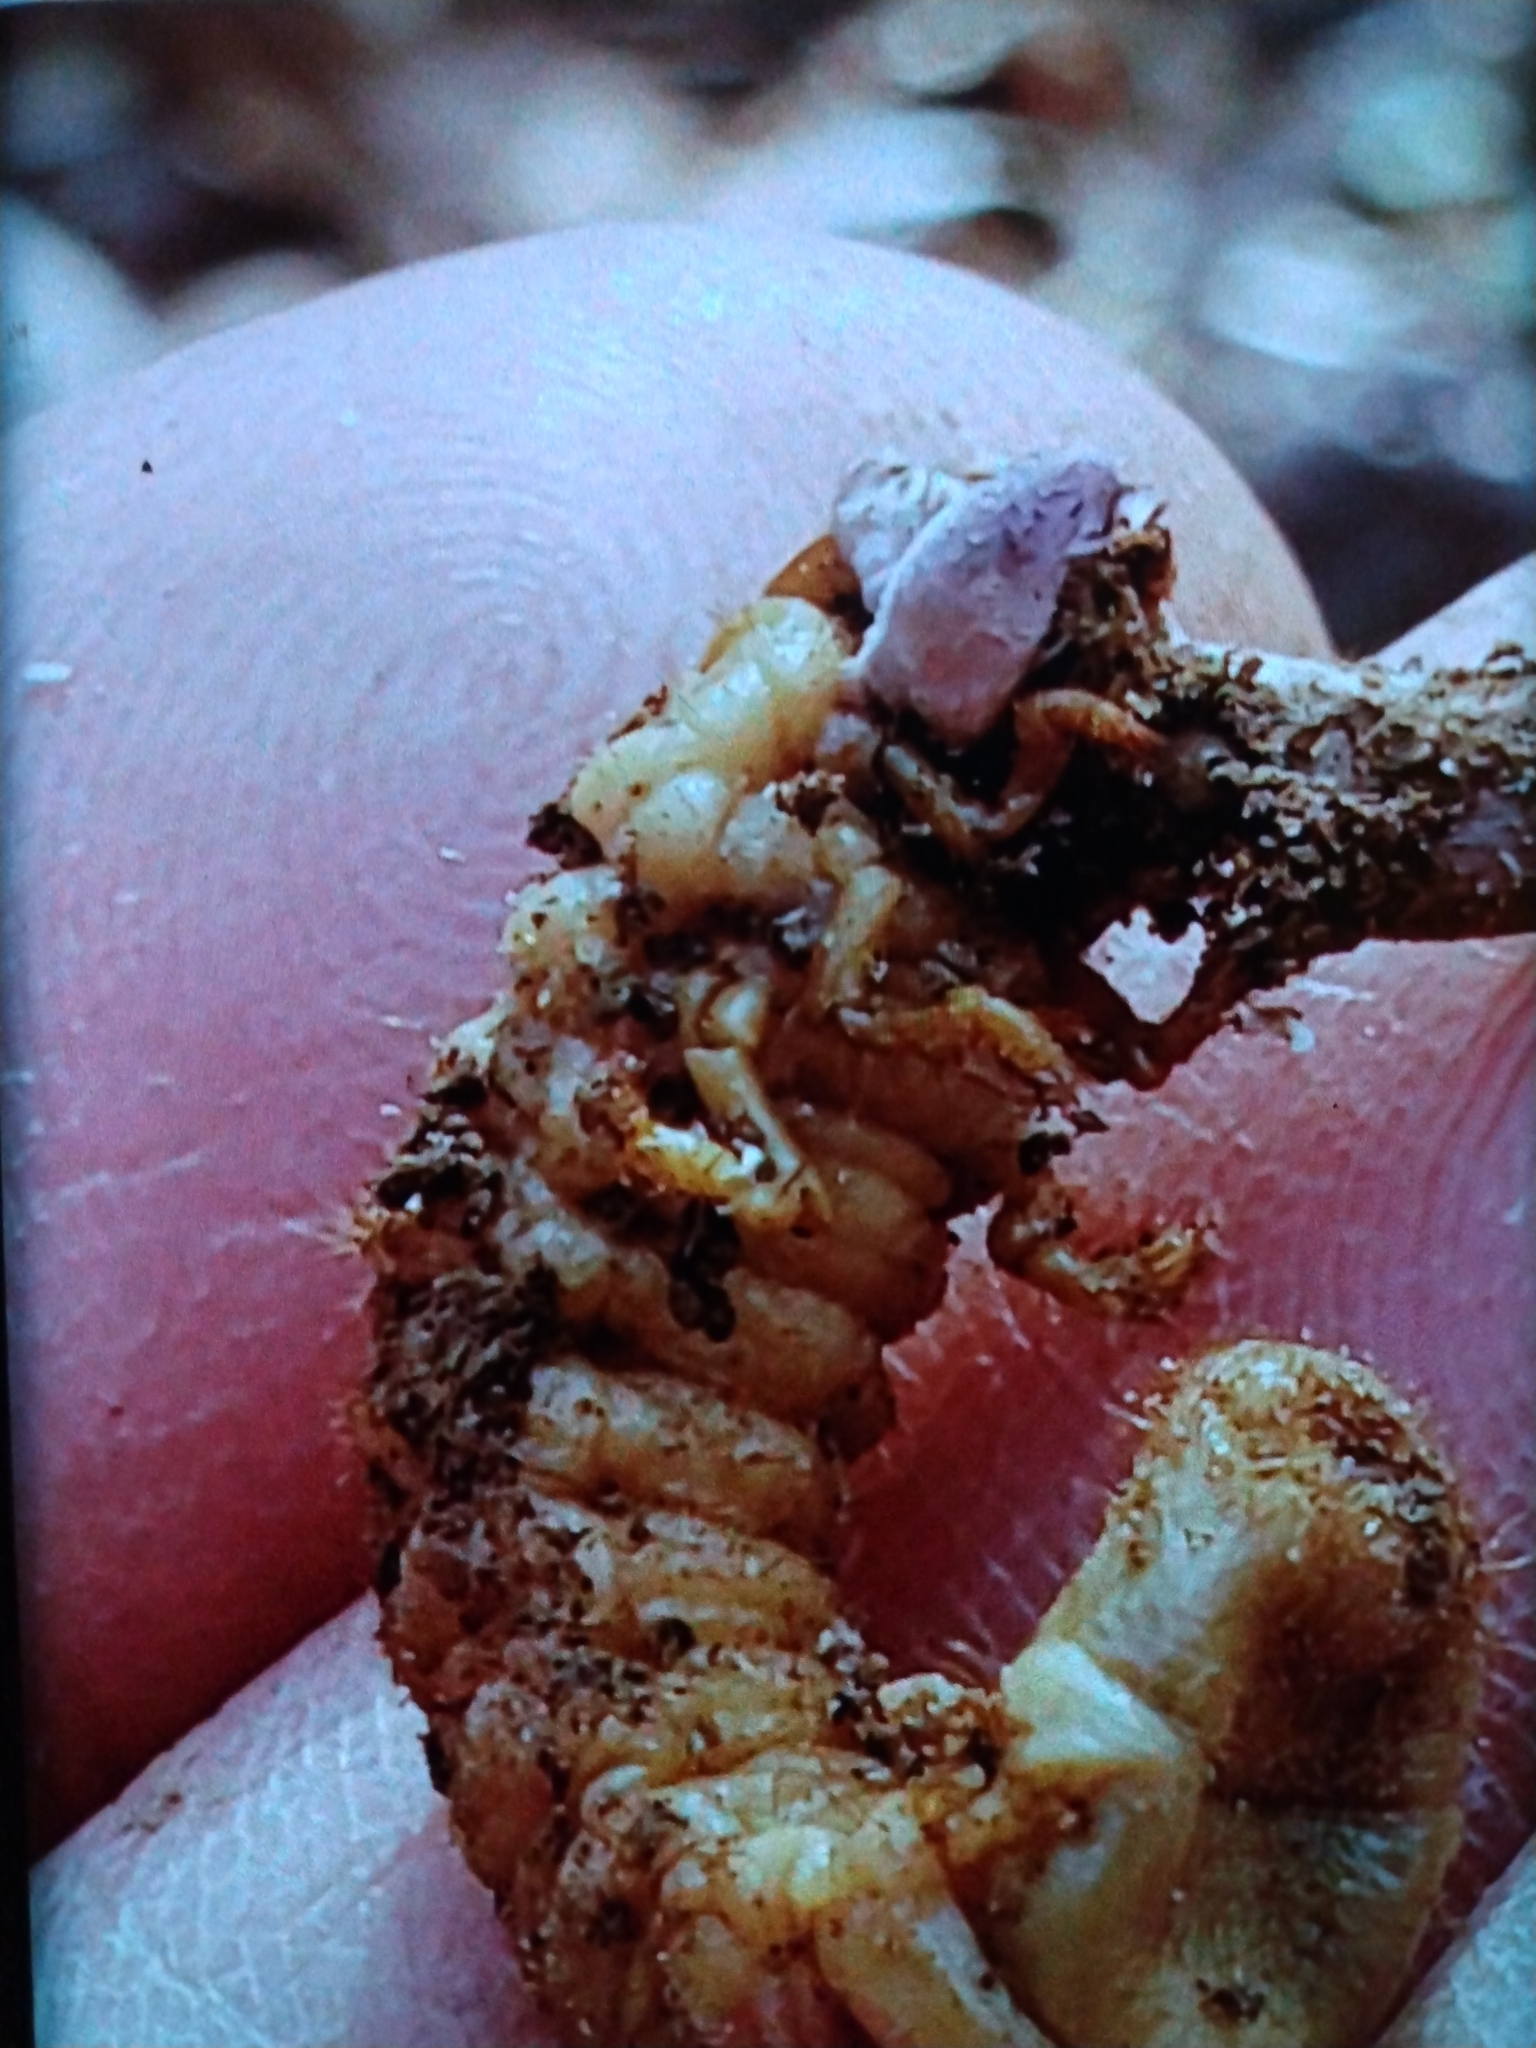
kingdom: Fungi
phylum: Ascomycota
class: Sordariomycetes
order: Hypocreales
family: Ophiocordycipitaceae
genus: Ophiocordyceps
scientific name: Ophiocordyceps ravenelii
